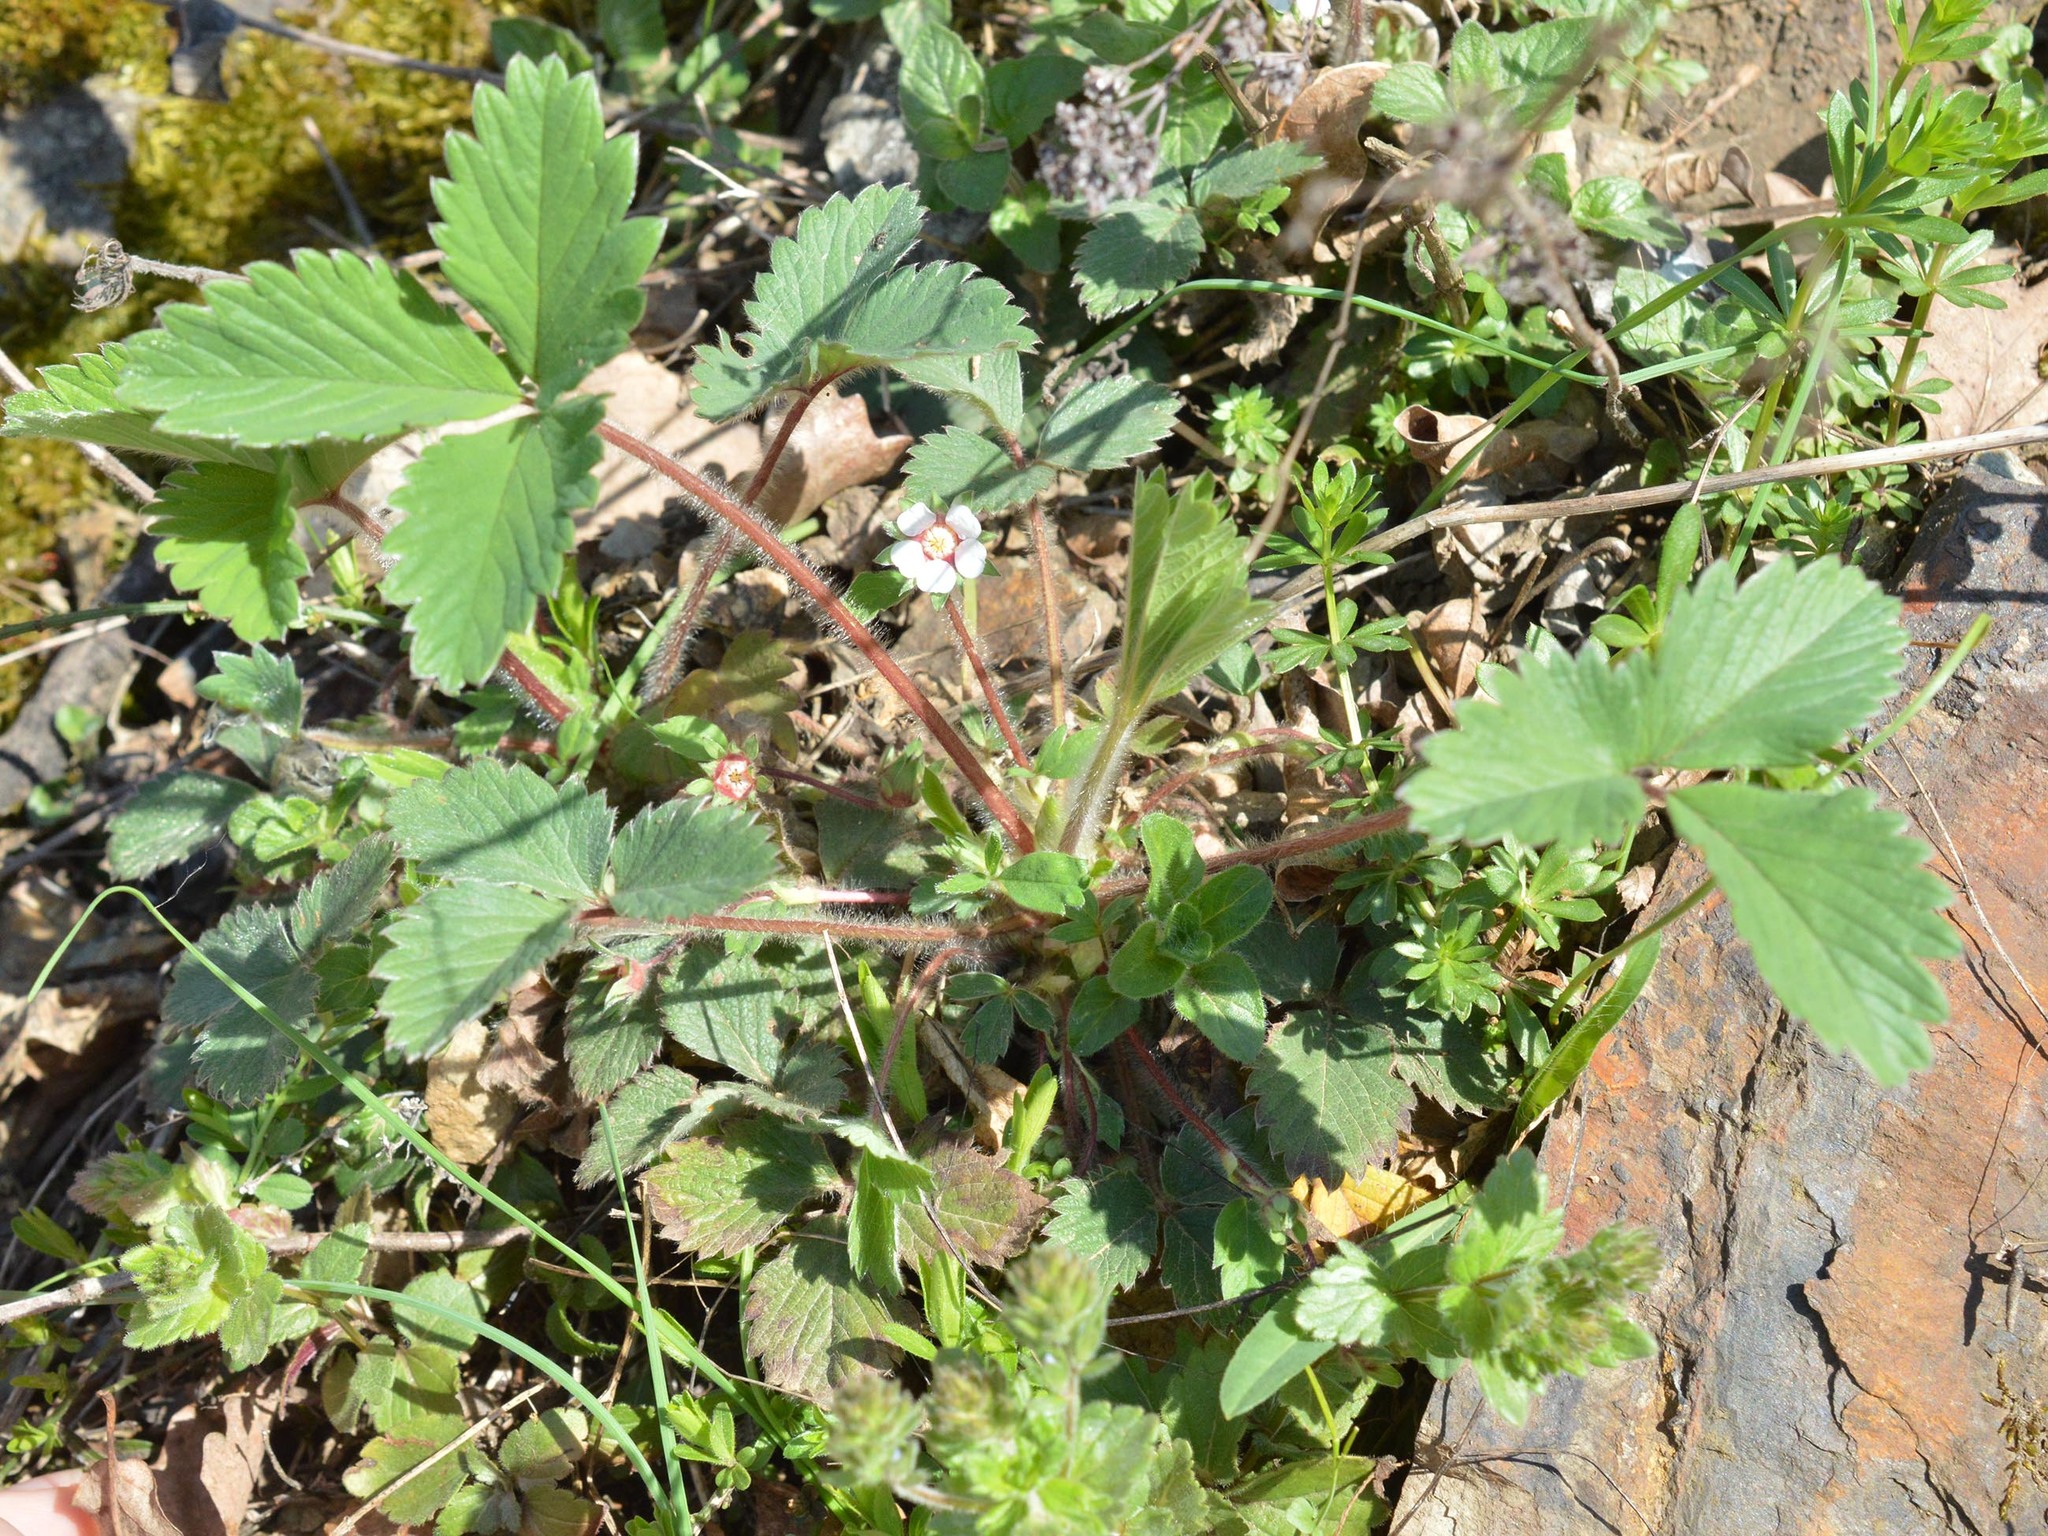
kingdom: Plantae
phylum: Tracheophyta
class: Magnoliopsida
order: Rosales
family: Rosaceae
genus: Potentilla
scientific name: Potentilla micrantha
